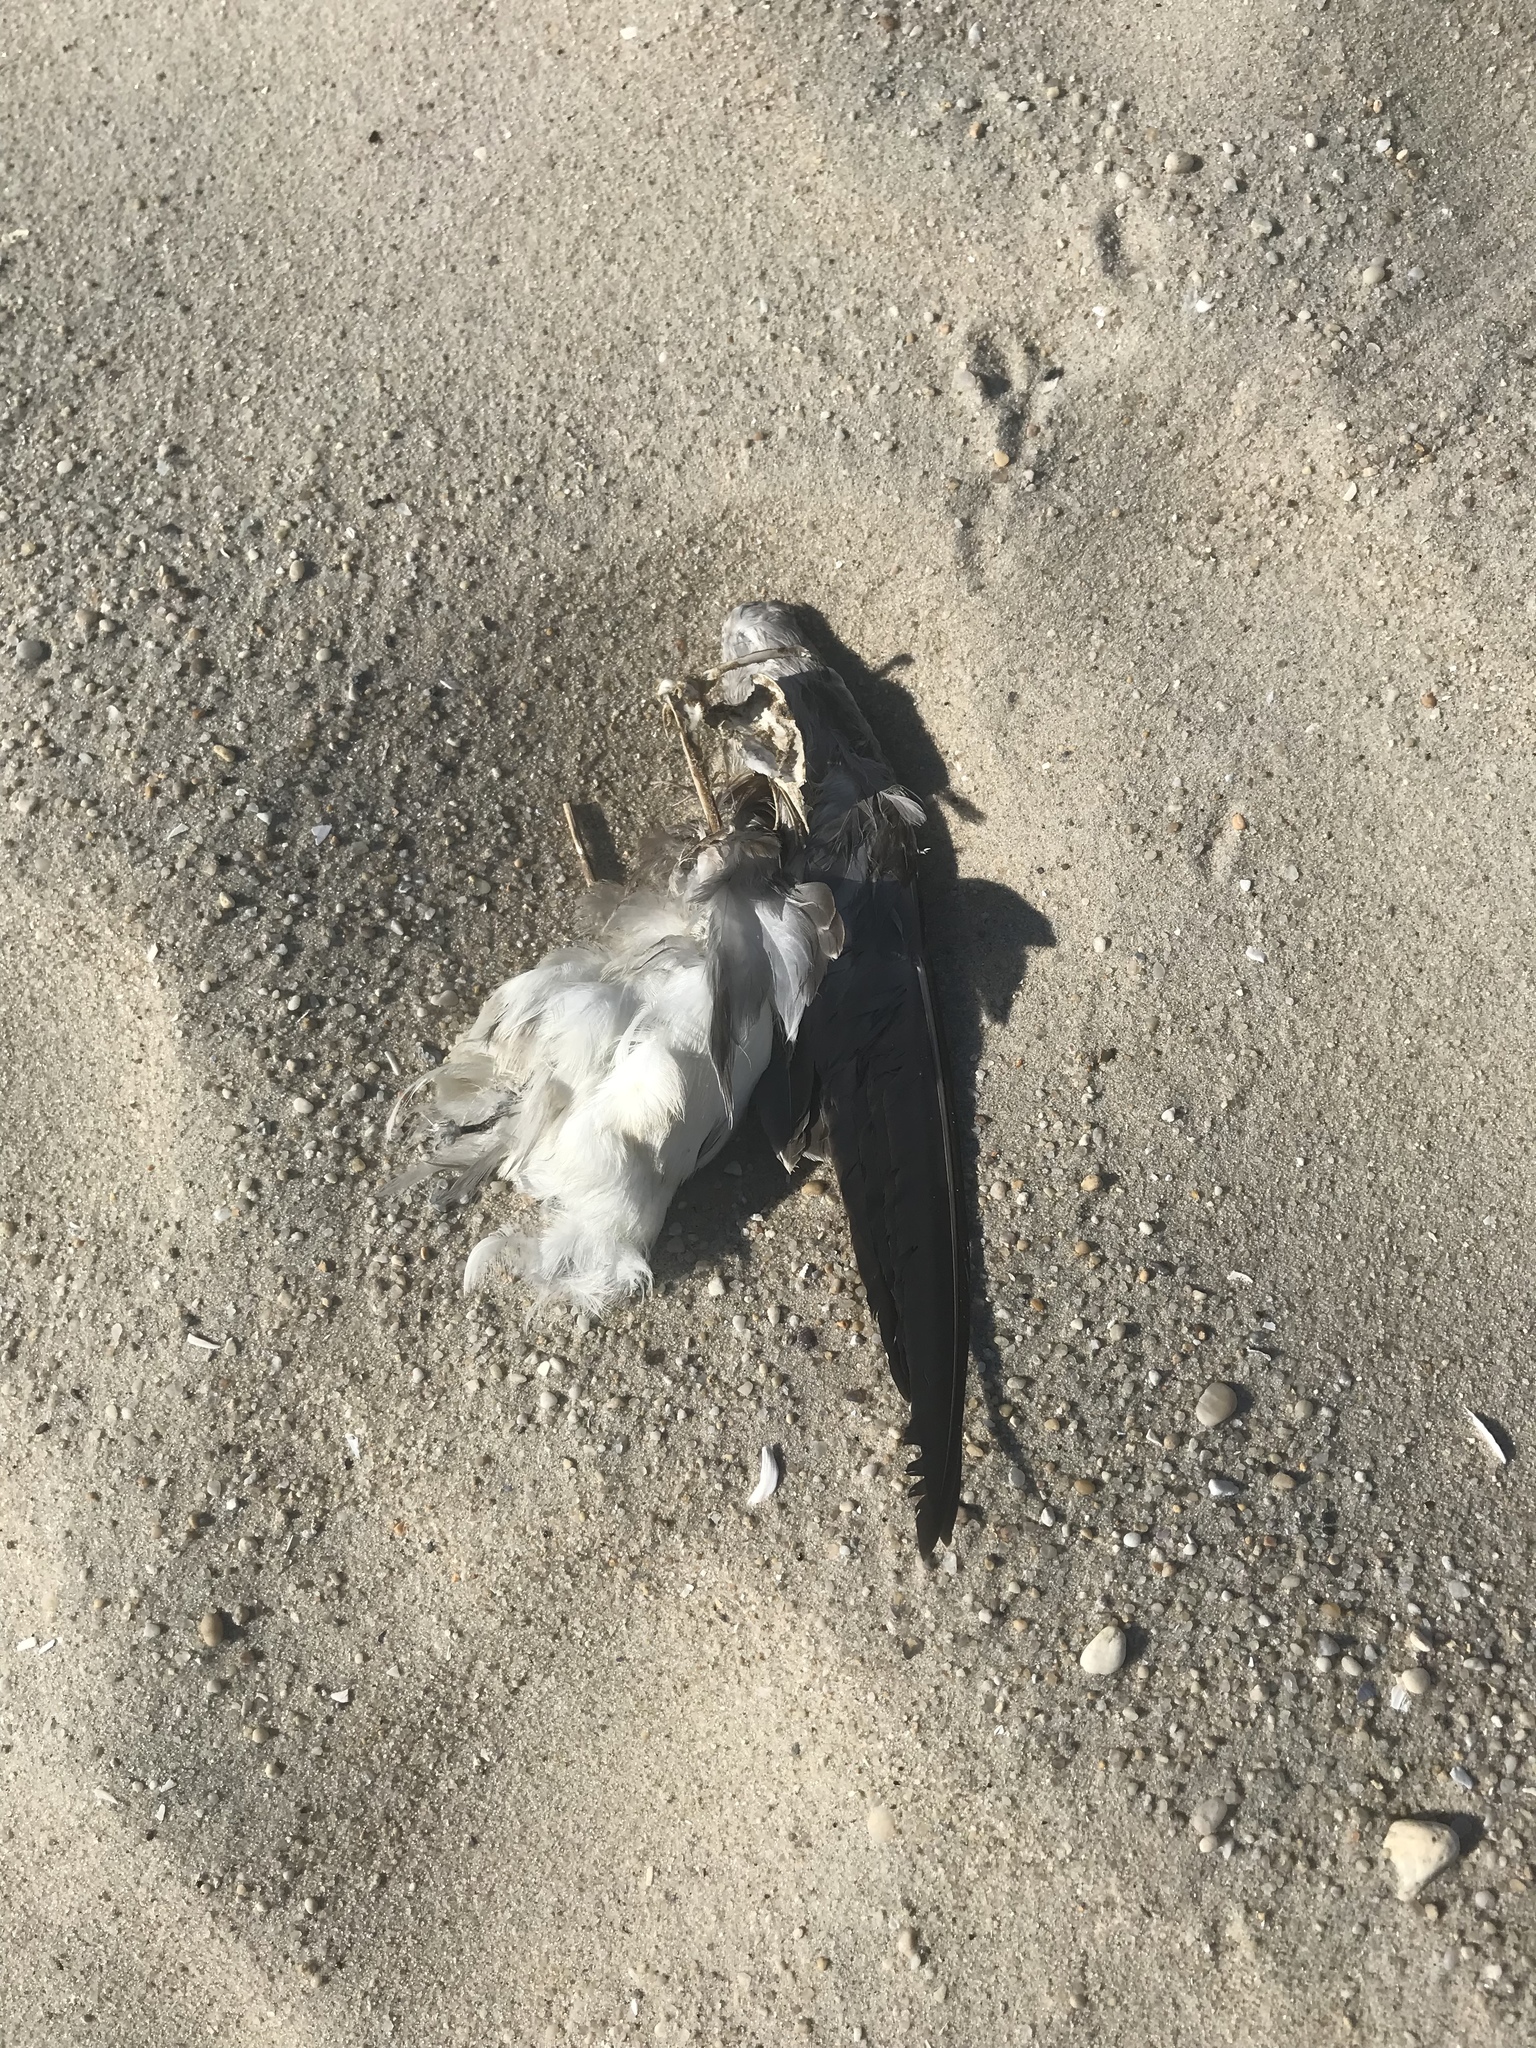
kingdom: Animalia
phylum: Chordata
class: Aves
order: Charadriiformes
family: Laridae
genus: Leucophaeus
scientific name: Leucophaeus atricilla
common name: Laughing gull
